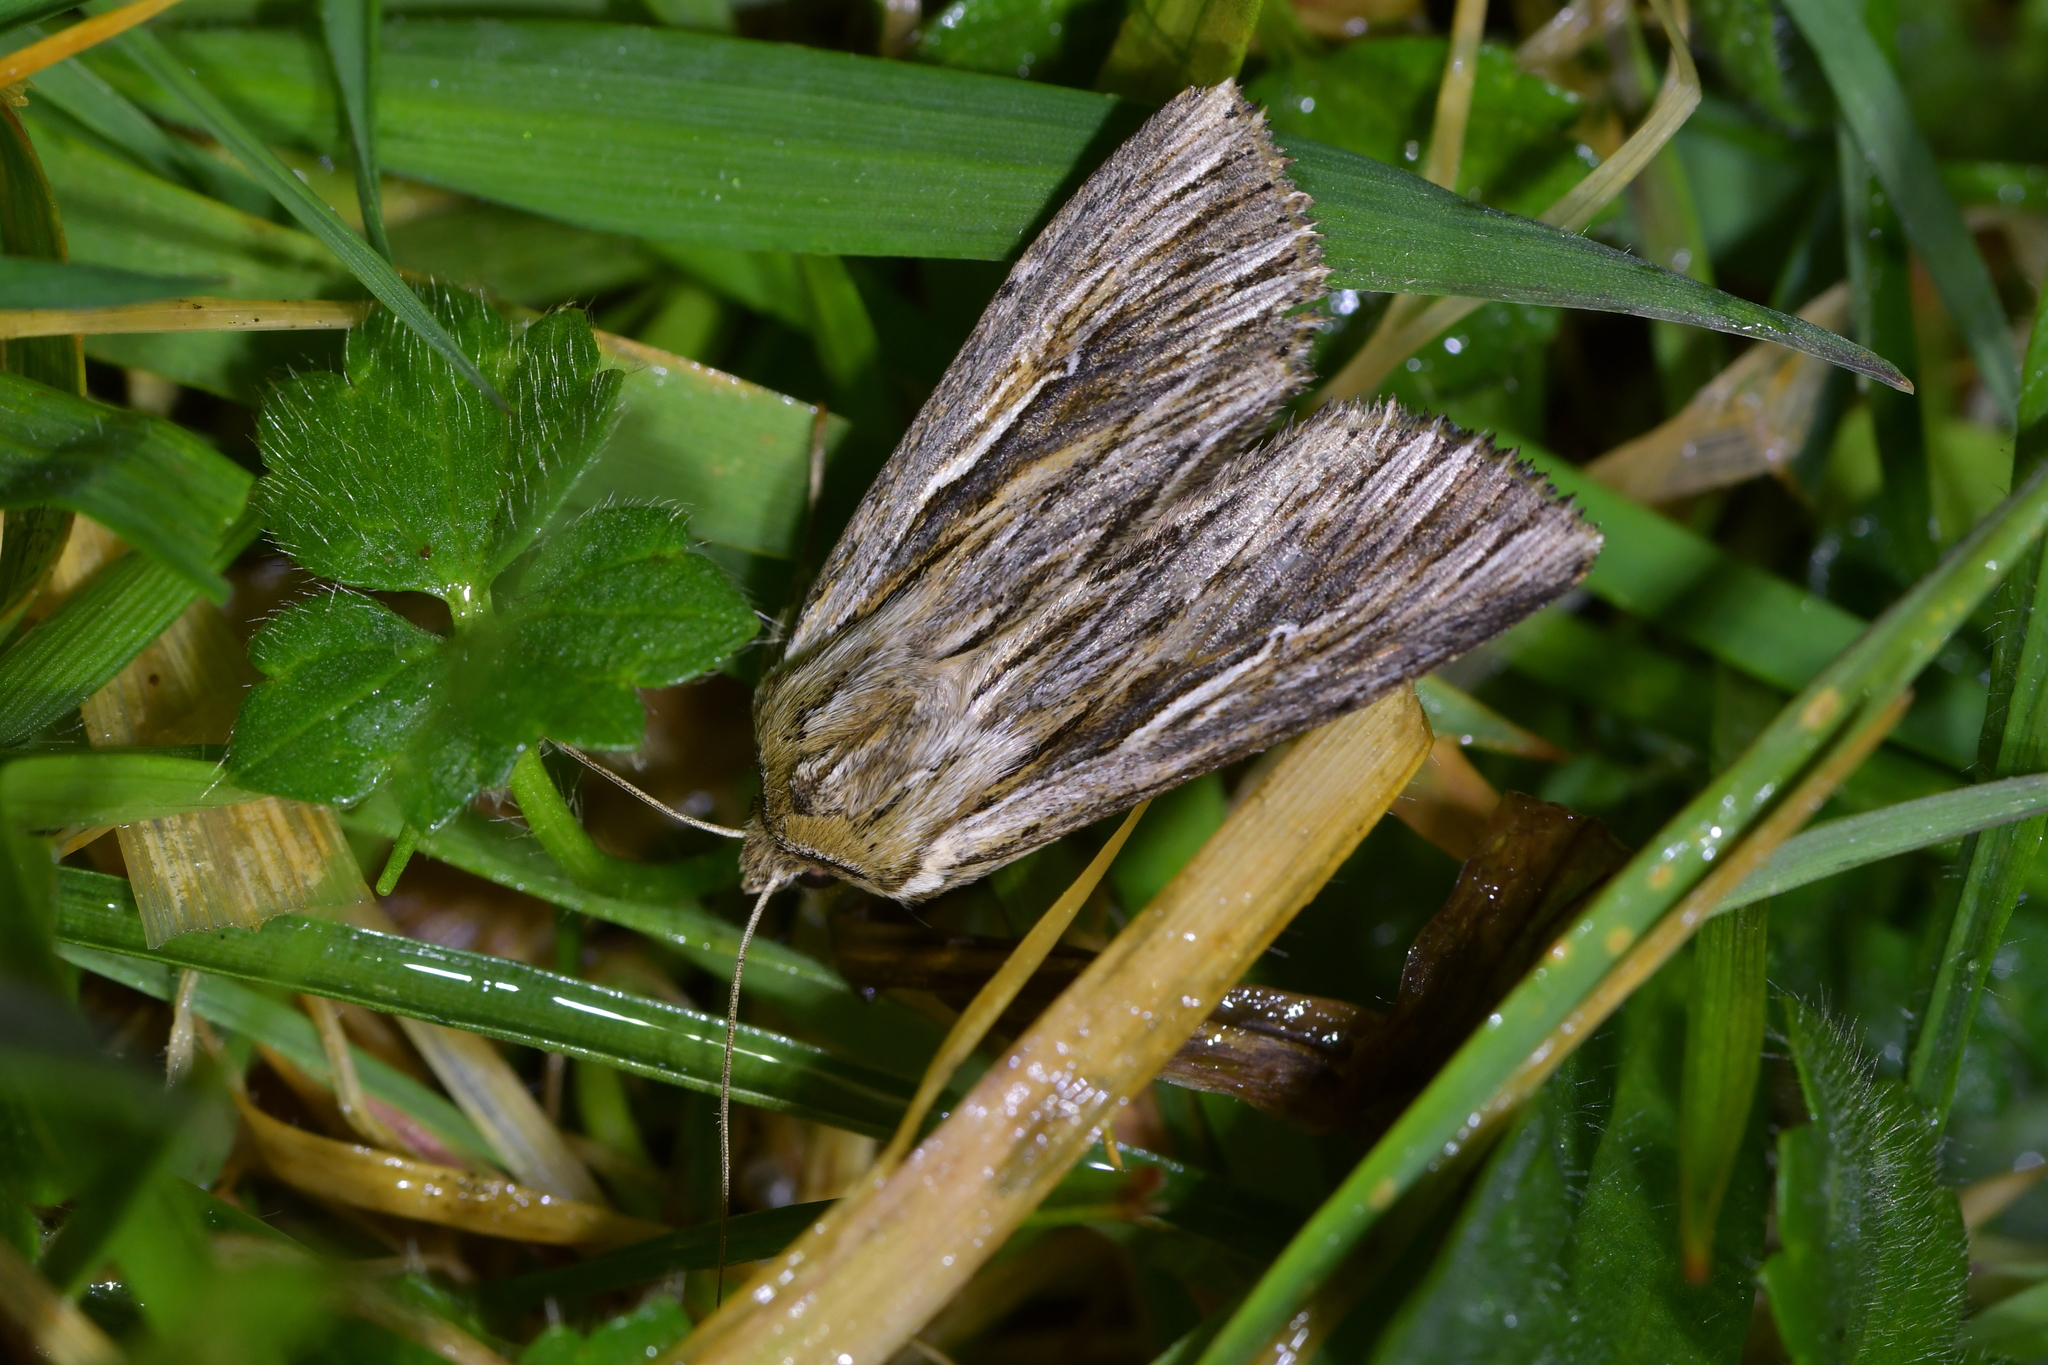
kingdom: Animalia
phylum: Arthropoda
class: Insecta
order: Lepidoptera
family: Noctuidae
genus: Persectania
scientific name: Persectania aversa
